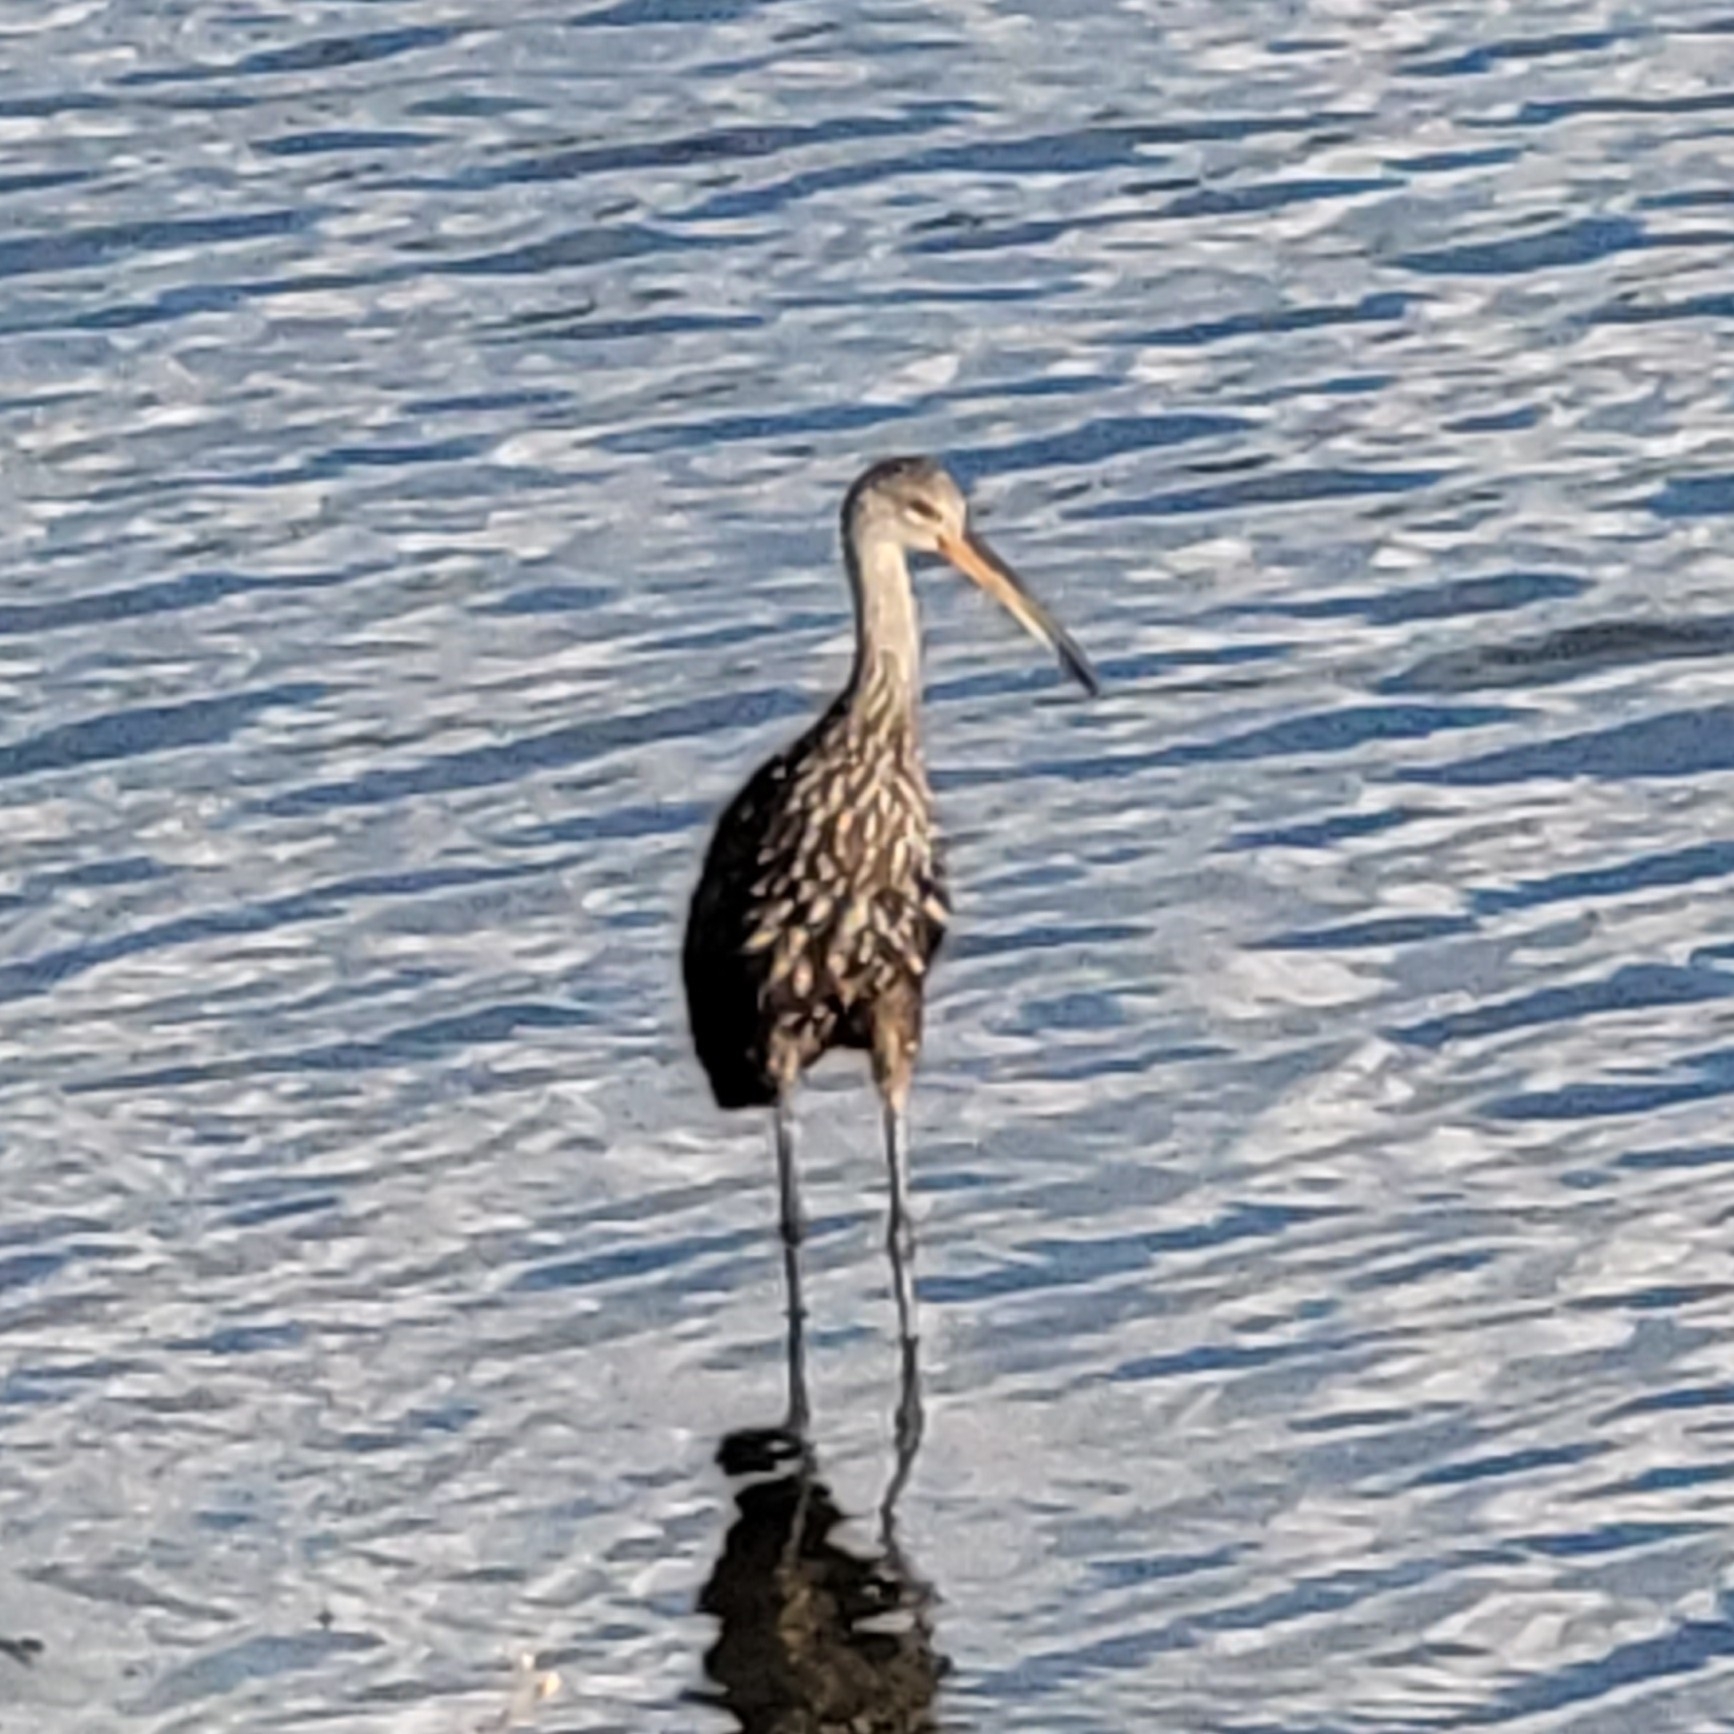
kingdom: Animalia
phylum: Chordata
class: Aves
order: Gruiformes
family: Aramidae
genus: Aramus
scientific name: Aramus guarauna
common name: Limpkin
